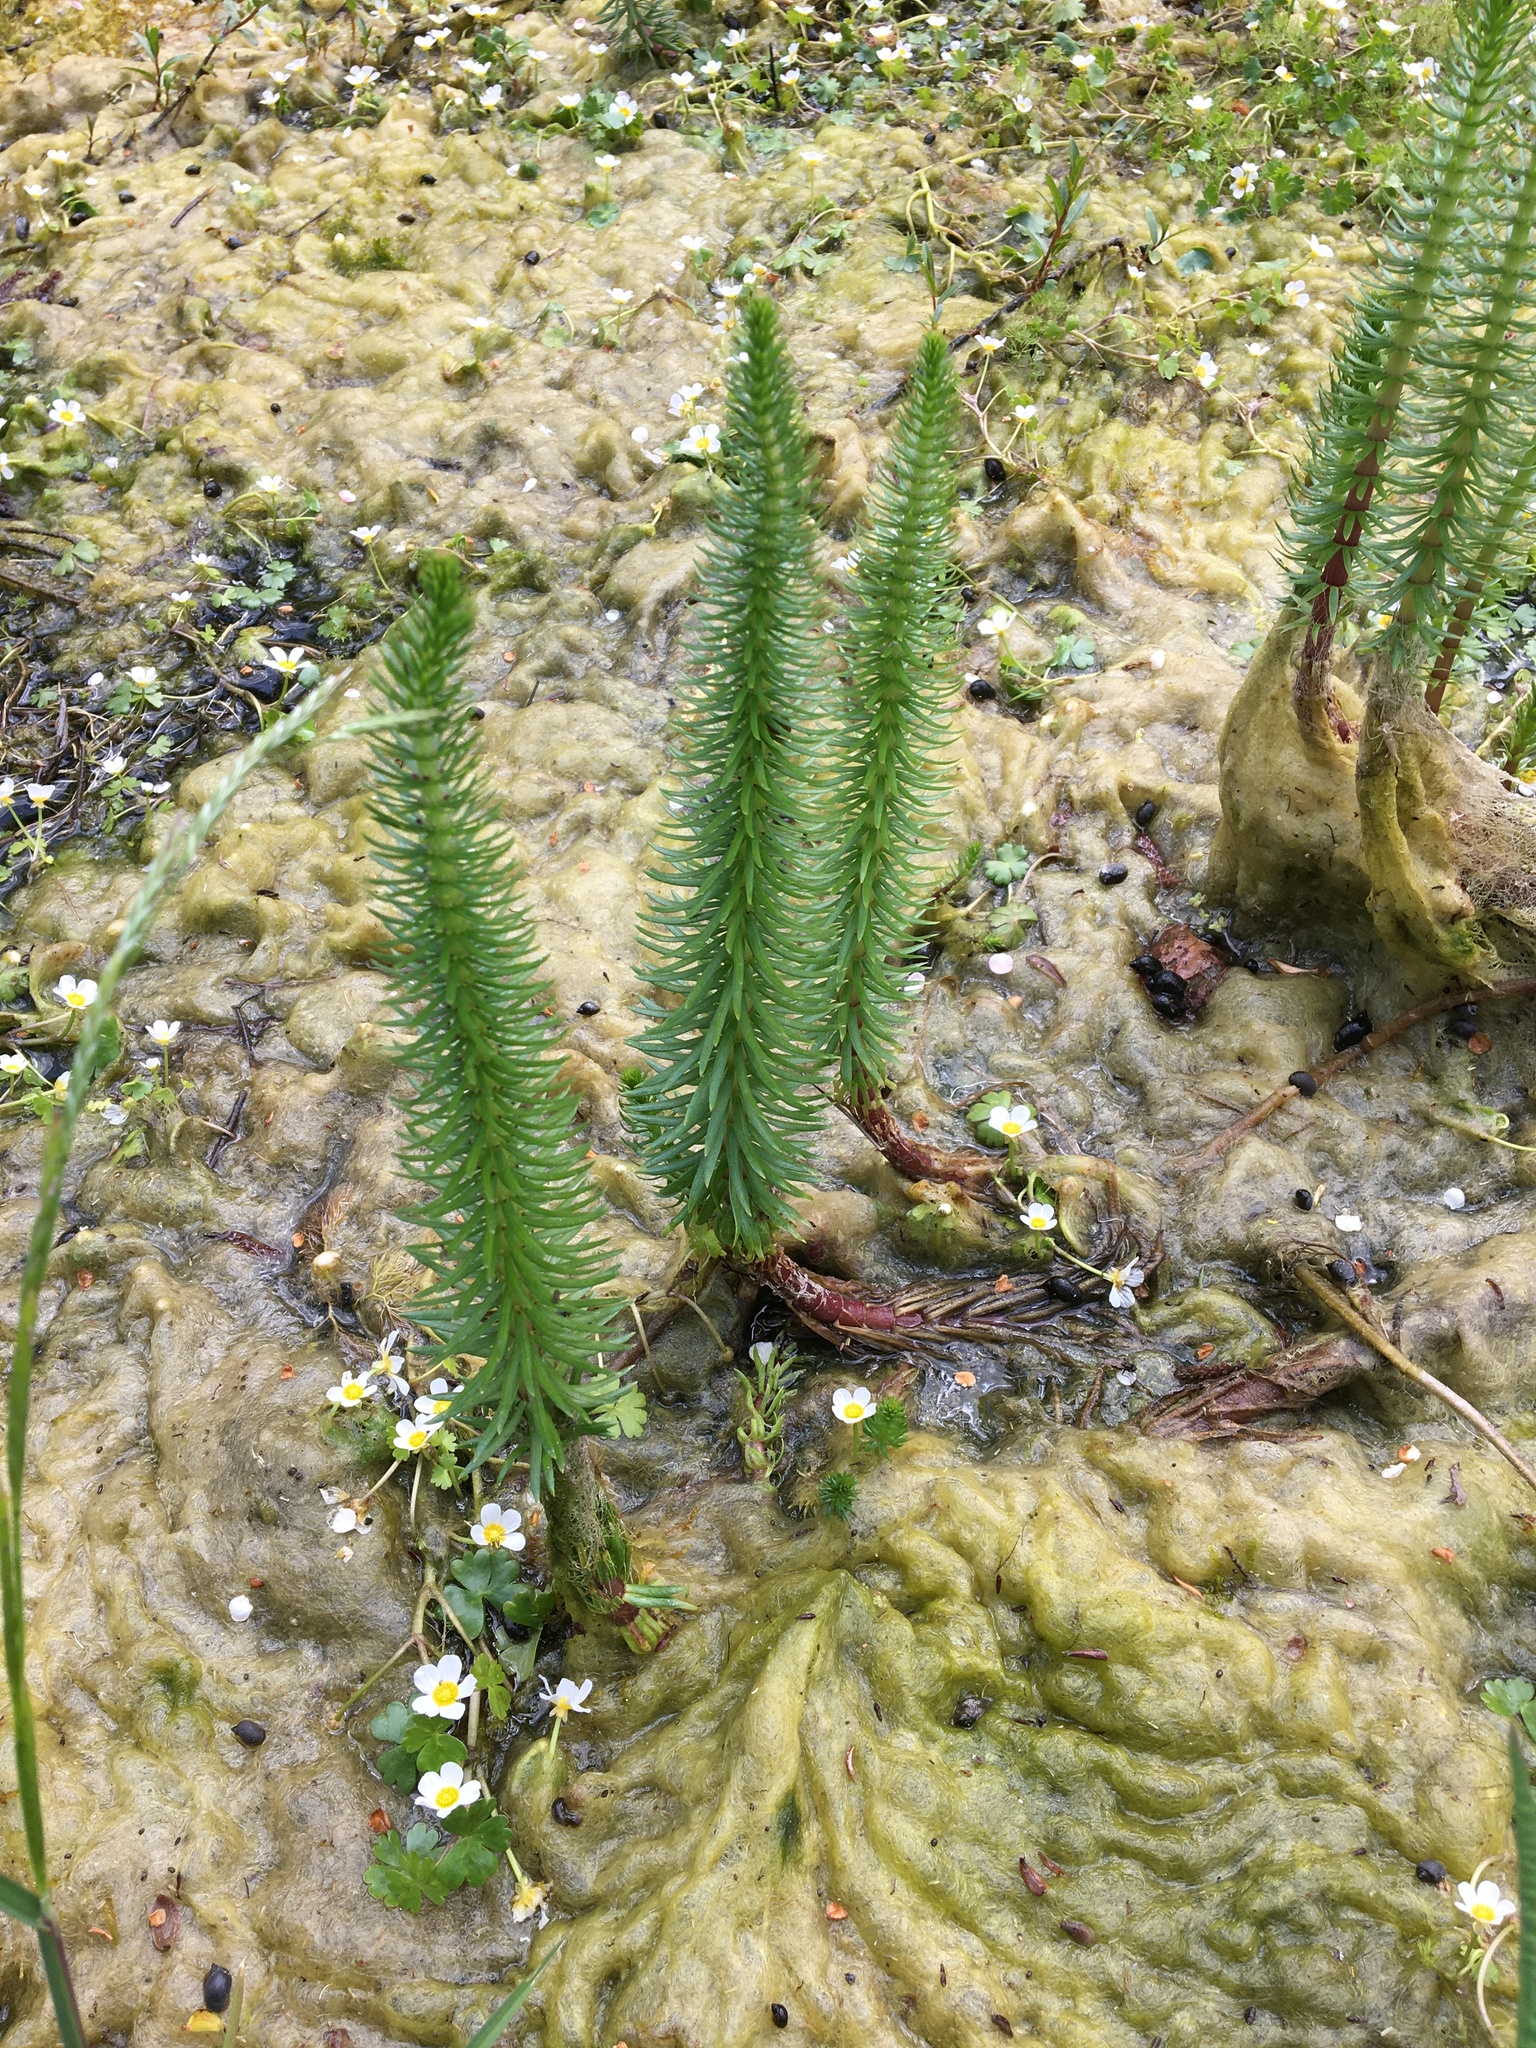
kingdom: Plantae
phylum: Tracheophyta
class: Magnoliopsida
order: Lamiales
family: Plantaginaceae
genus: Hippuris
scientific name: Hippuris vulgaris
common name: Mare's-tail
